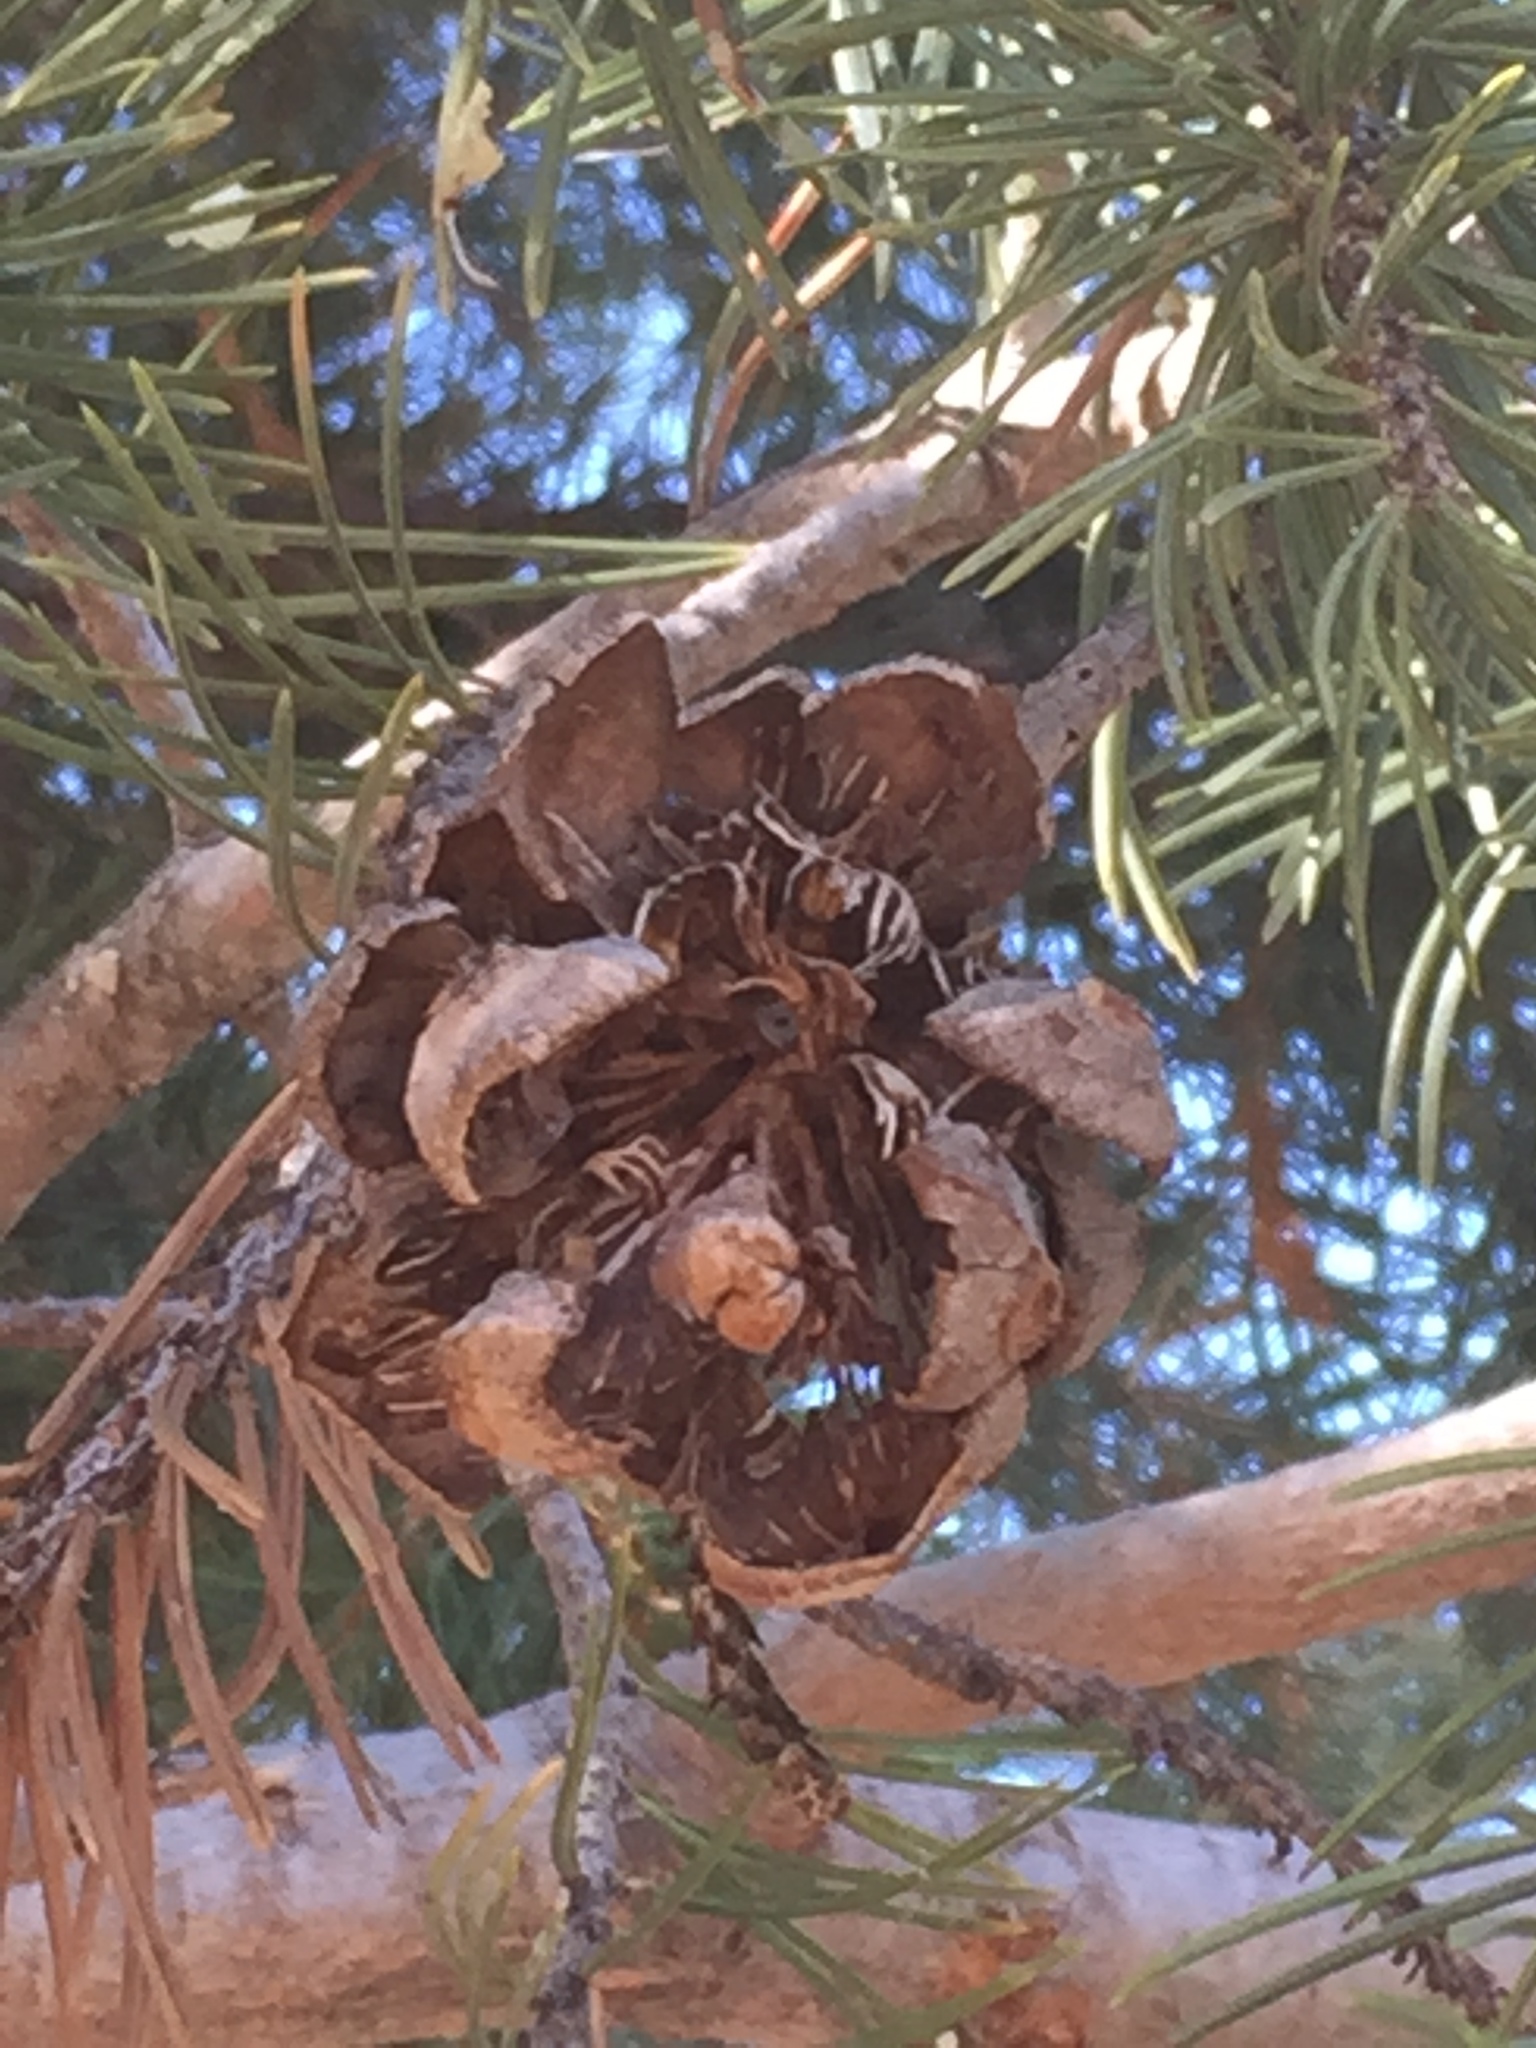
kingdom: Plantae
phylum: Tracheophyta
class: Pinopsida
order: Pinales
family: Pinaceae
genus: Pinus
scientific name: Pinus edulis
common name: Colorado pinyon
